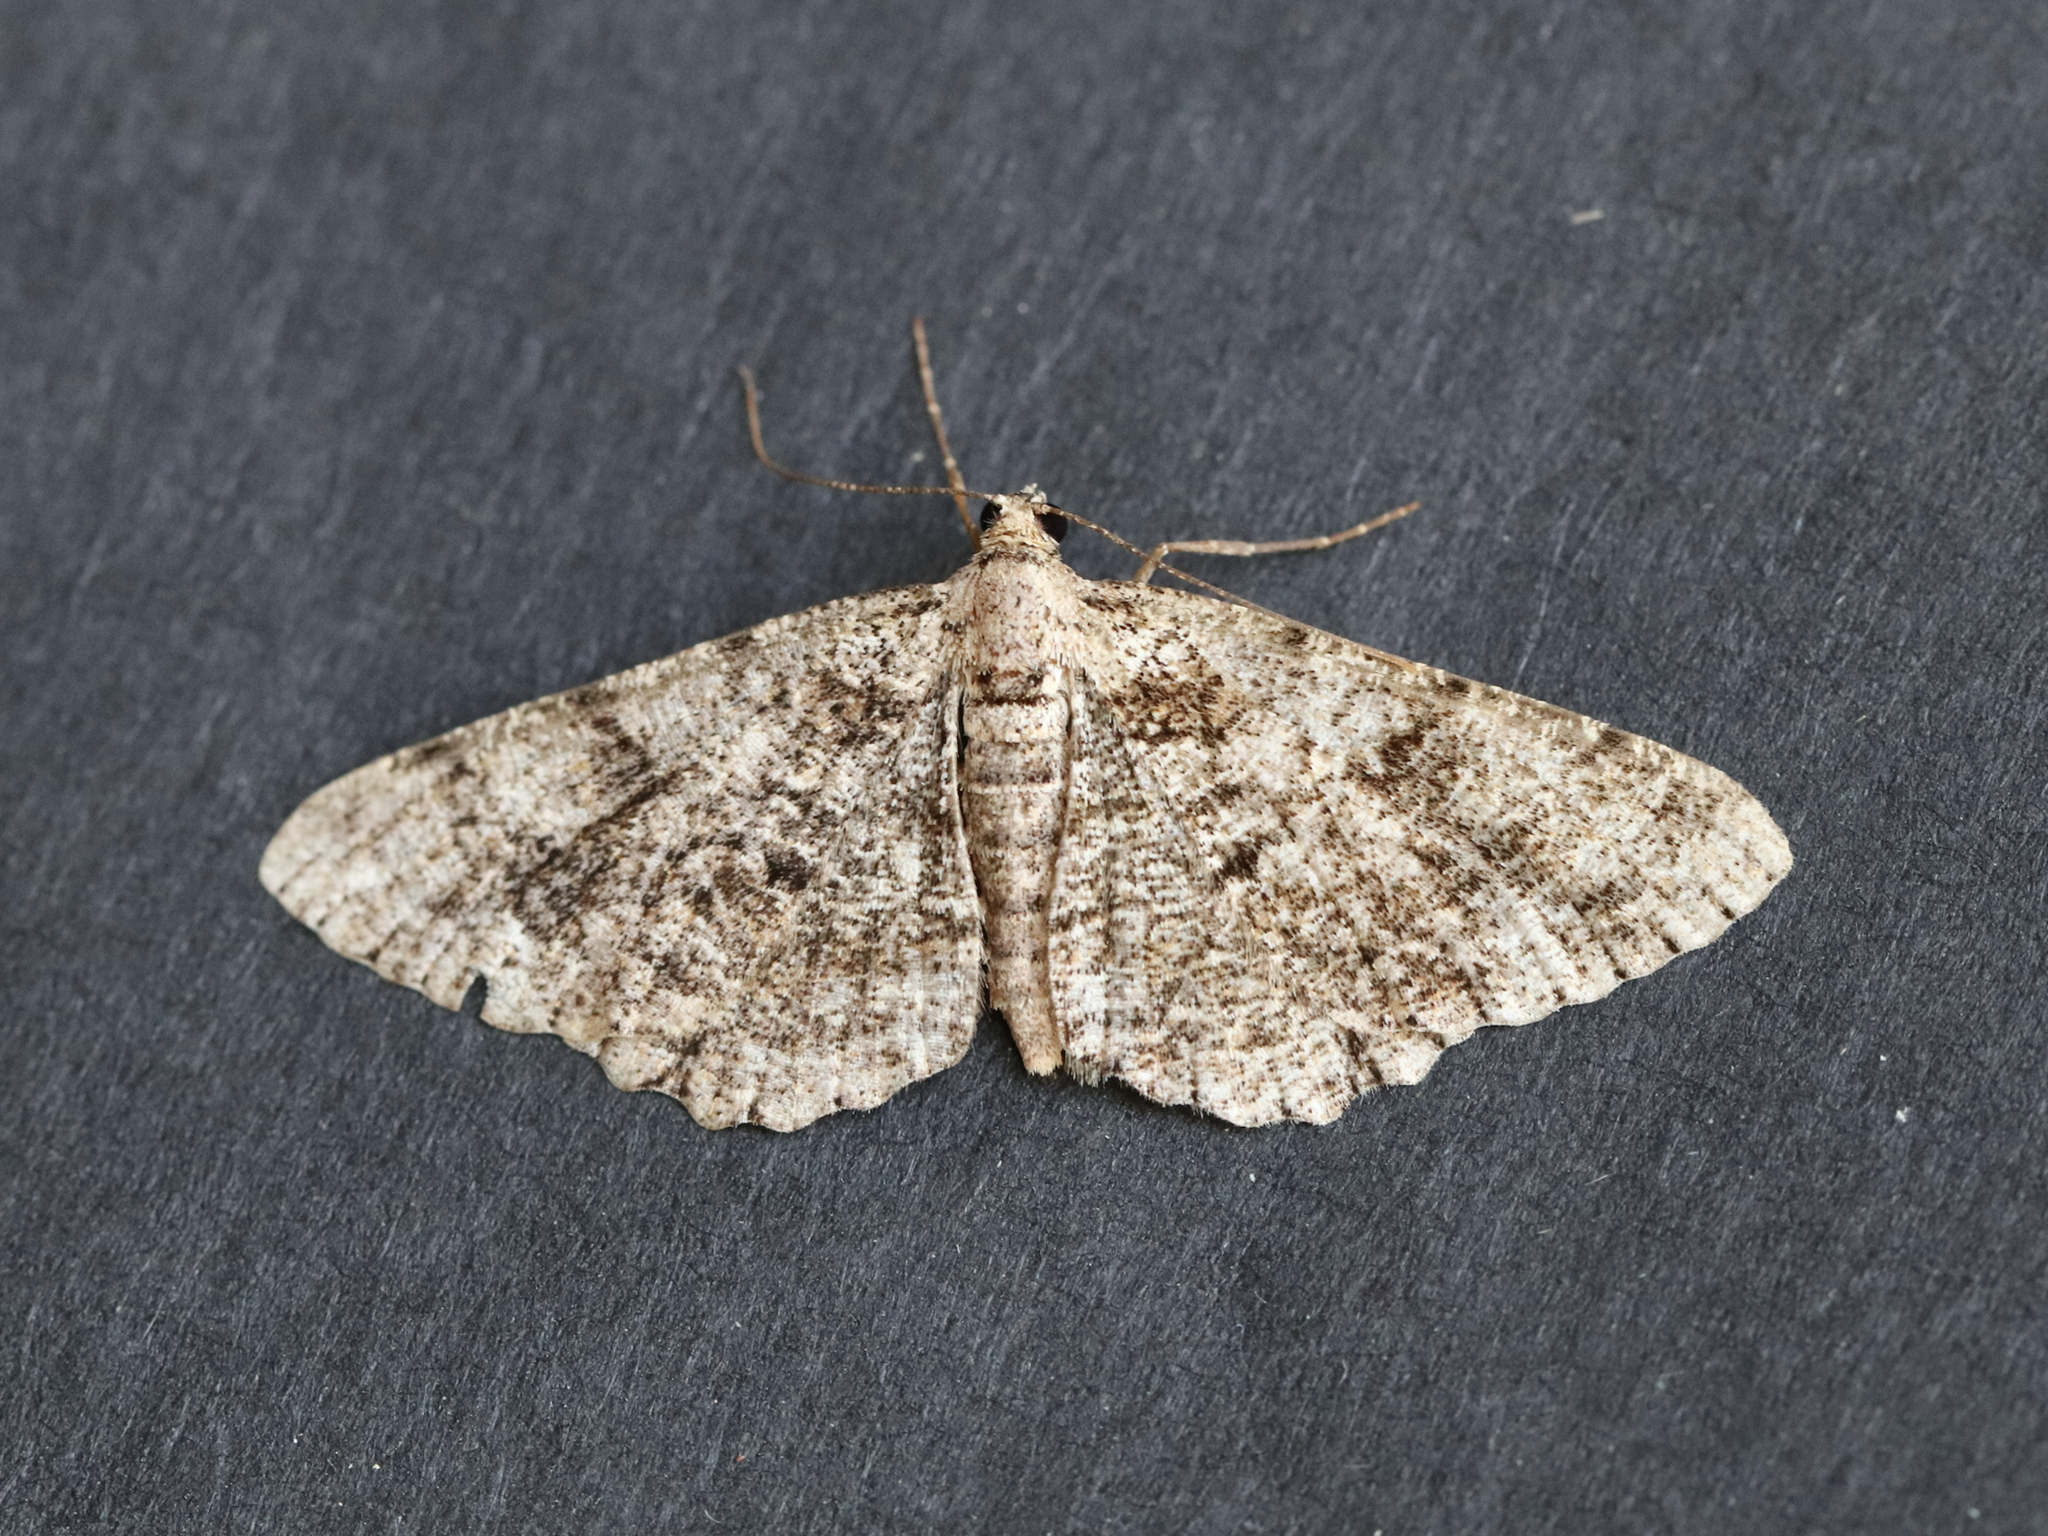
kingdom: Animalia
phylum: Arthropoda
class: Insecta
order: Lepidoptera
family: Geometridae
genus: Peribatodes
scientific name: Peribatodes secundaria
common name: Feathered beauty
